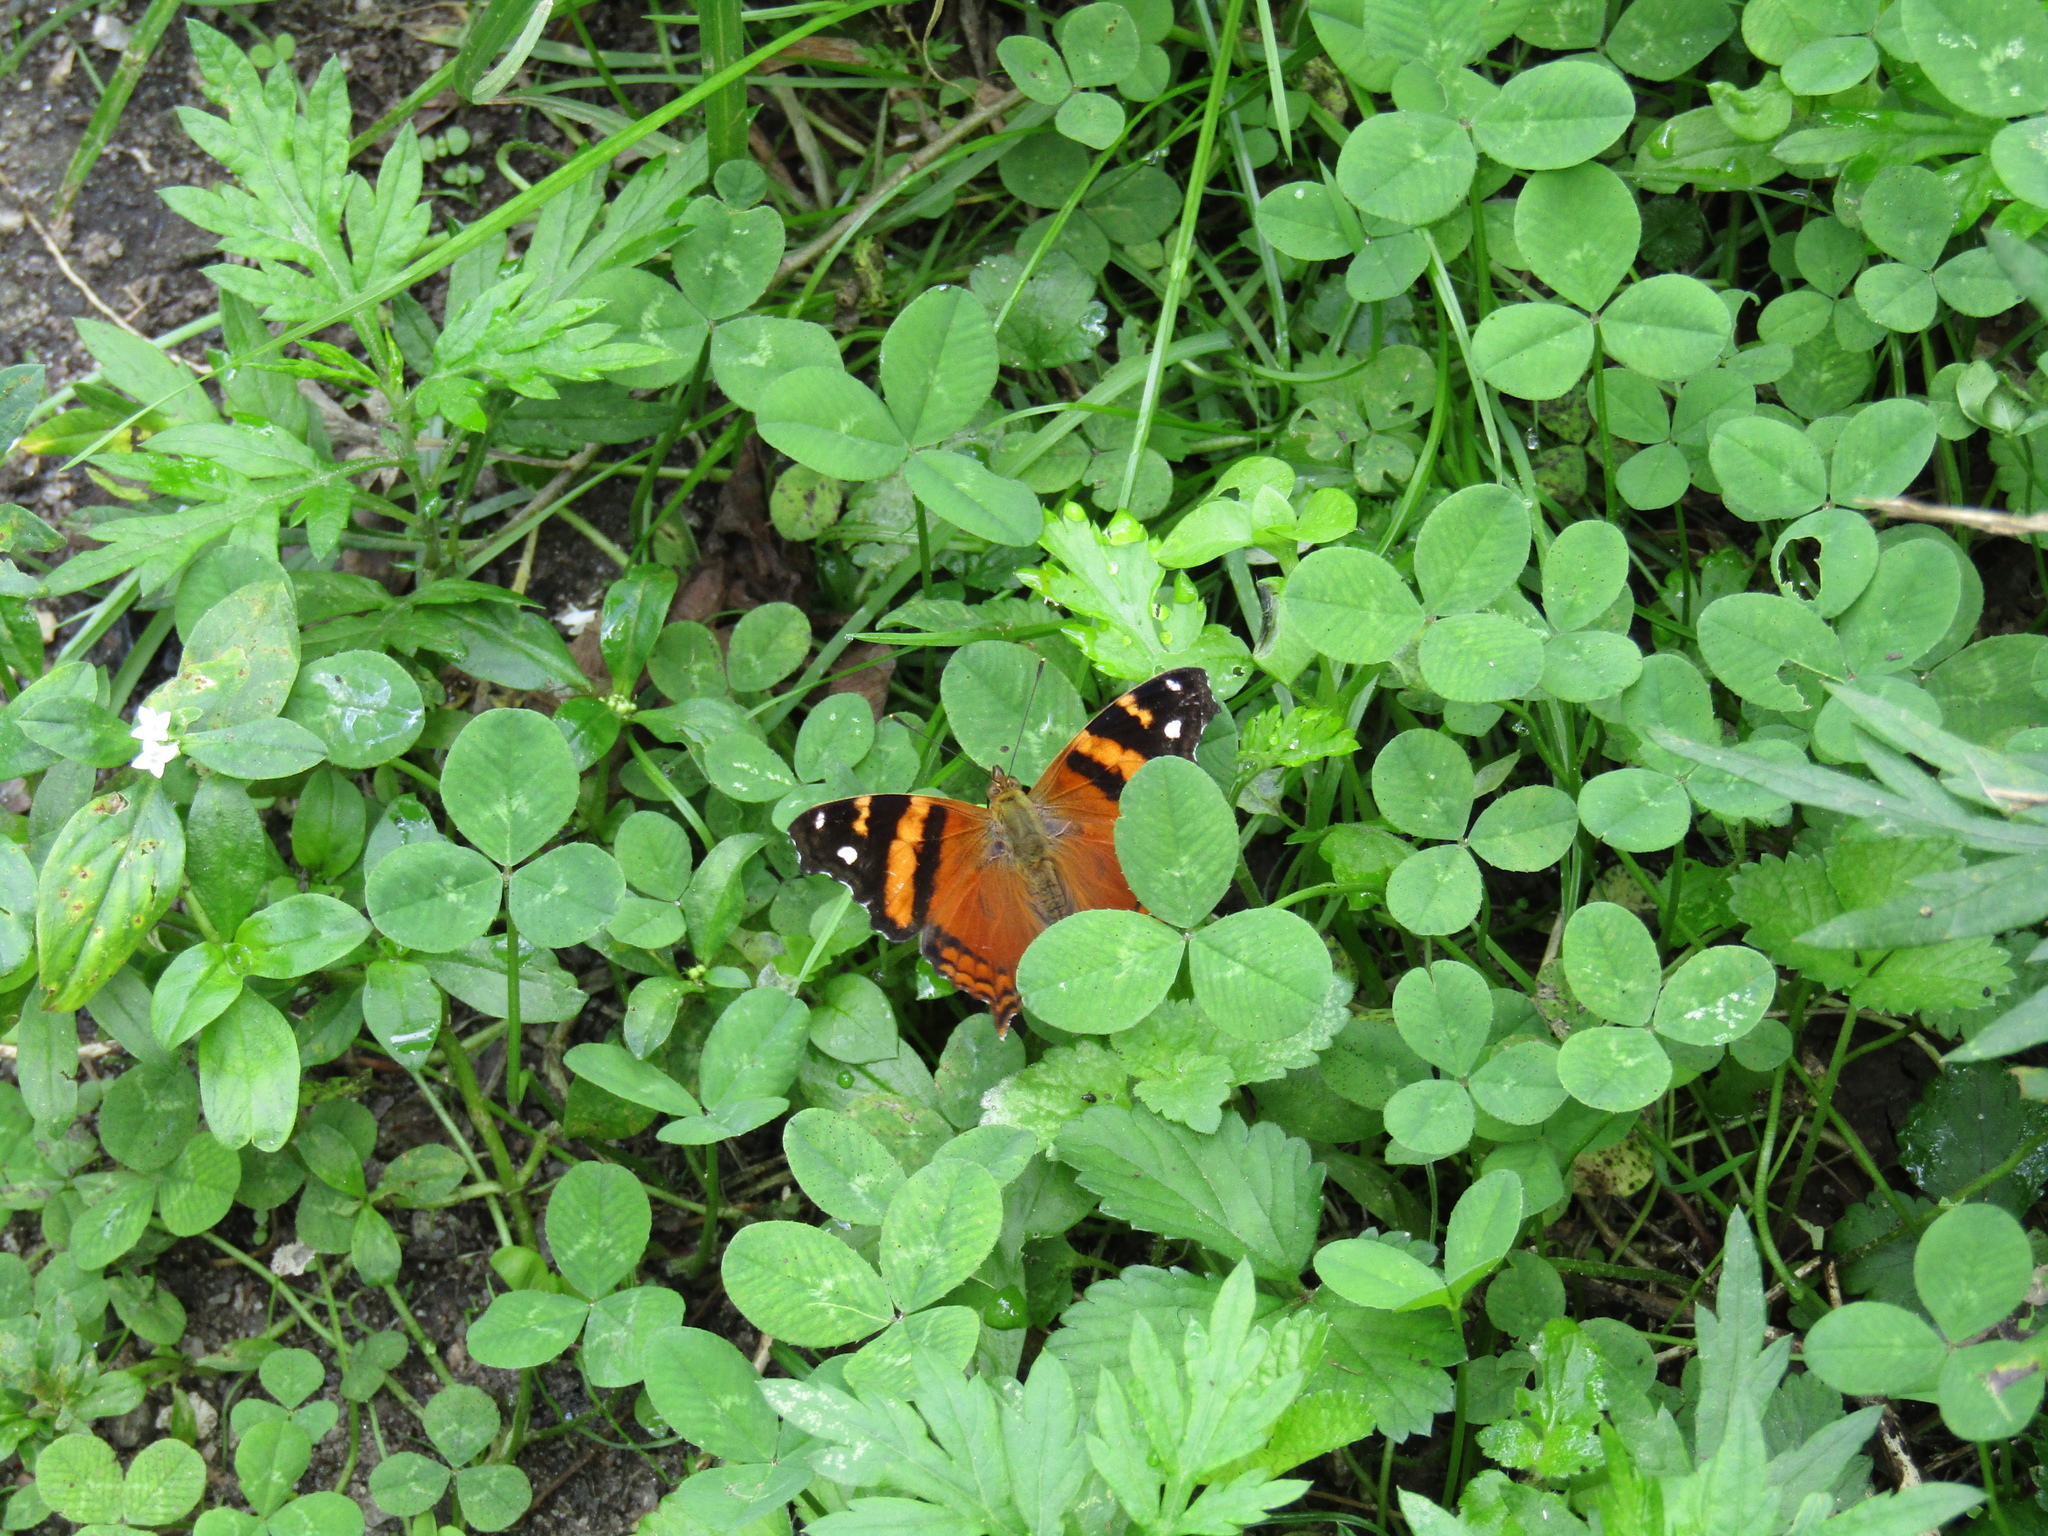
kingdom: Animalia
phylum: Arthropoda
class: Insecta
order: Lepidoptera
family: Nymphalidae
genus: Hypanartia
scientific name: Hypanartia bella
